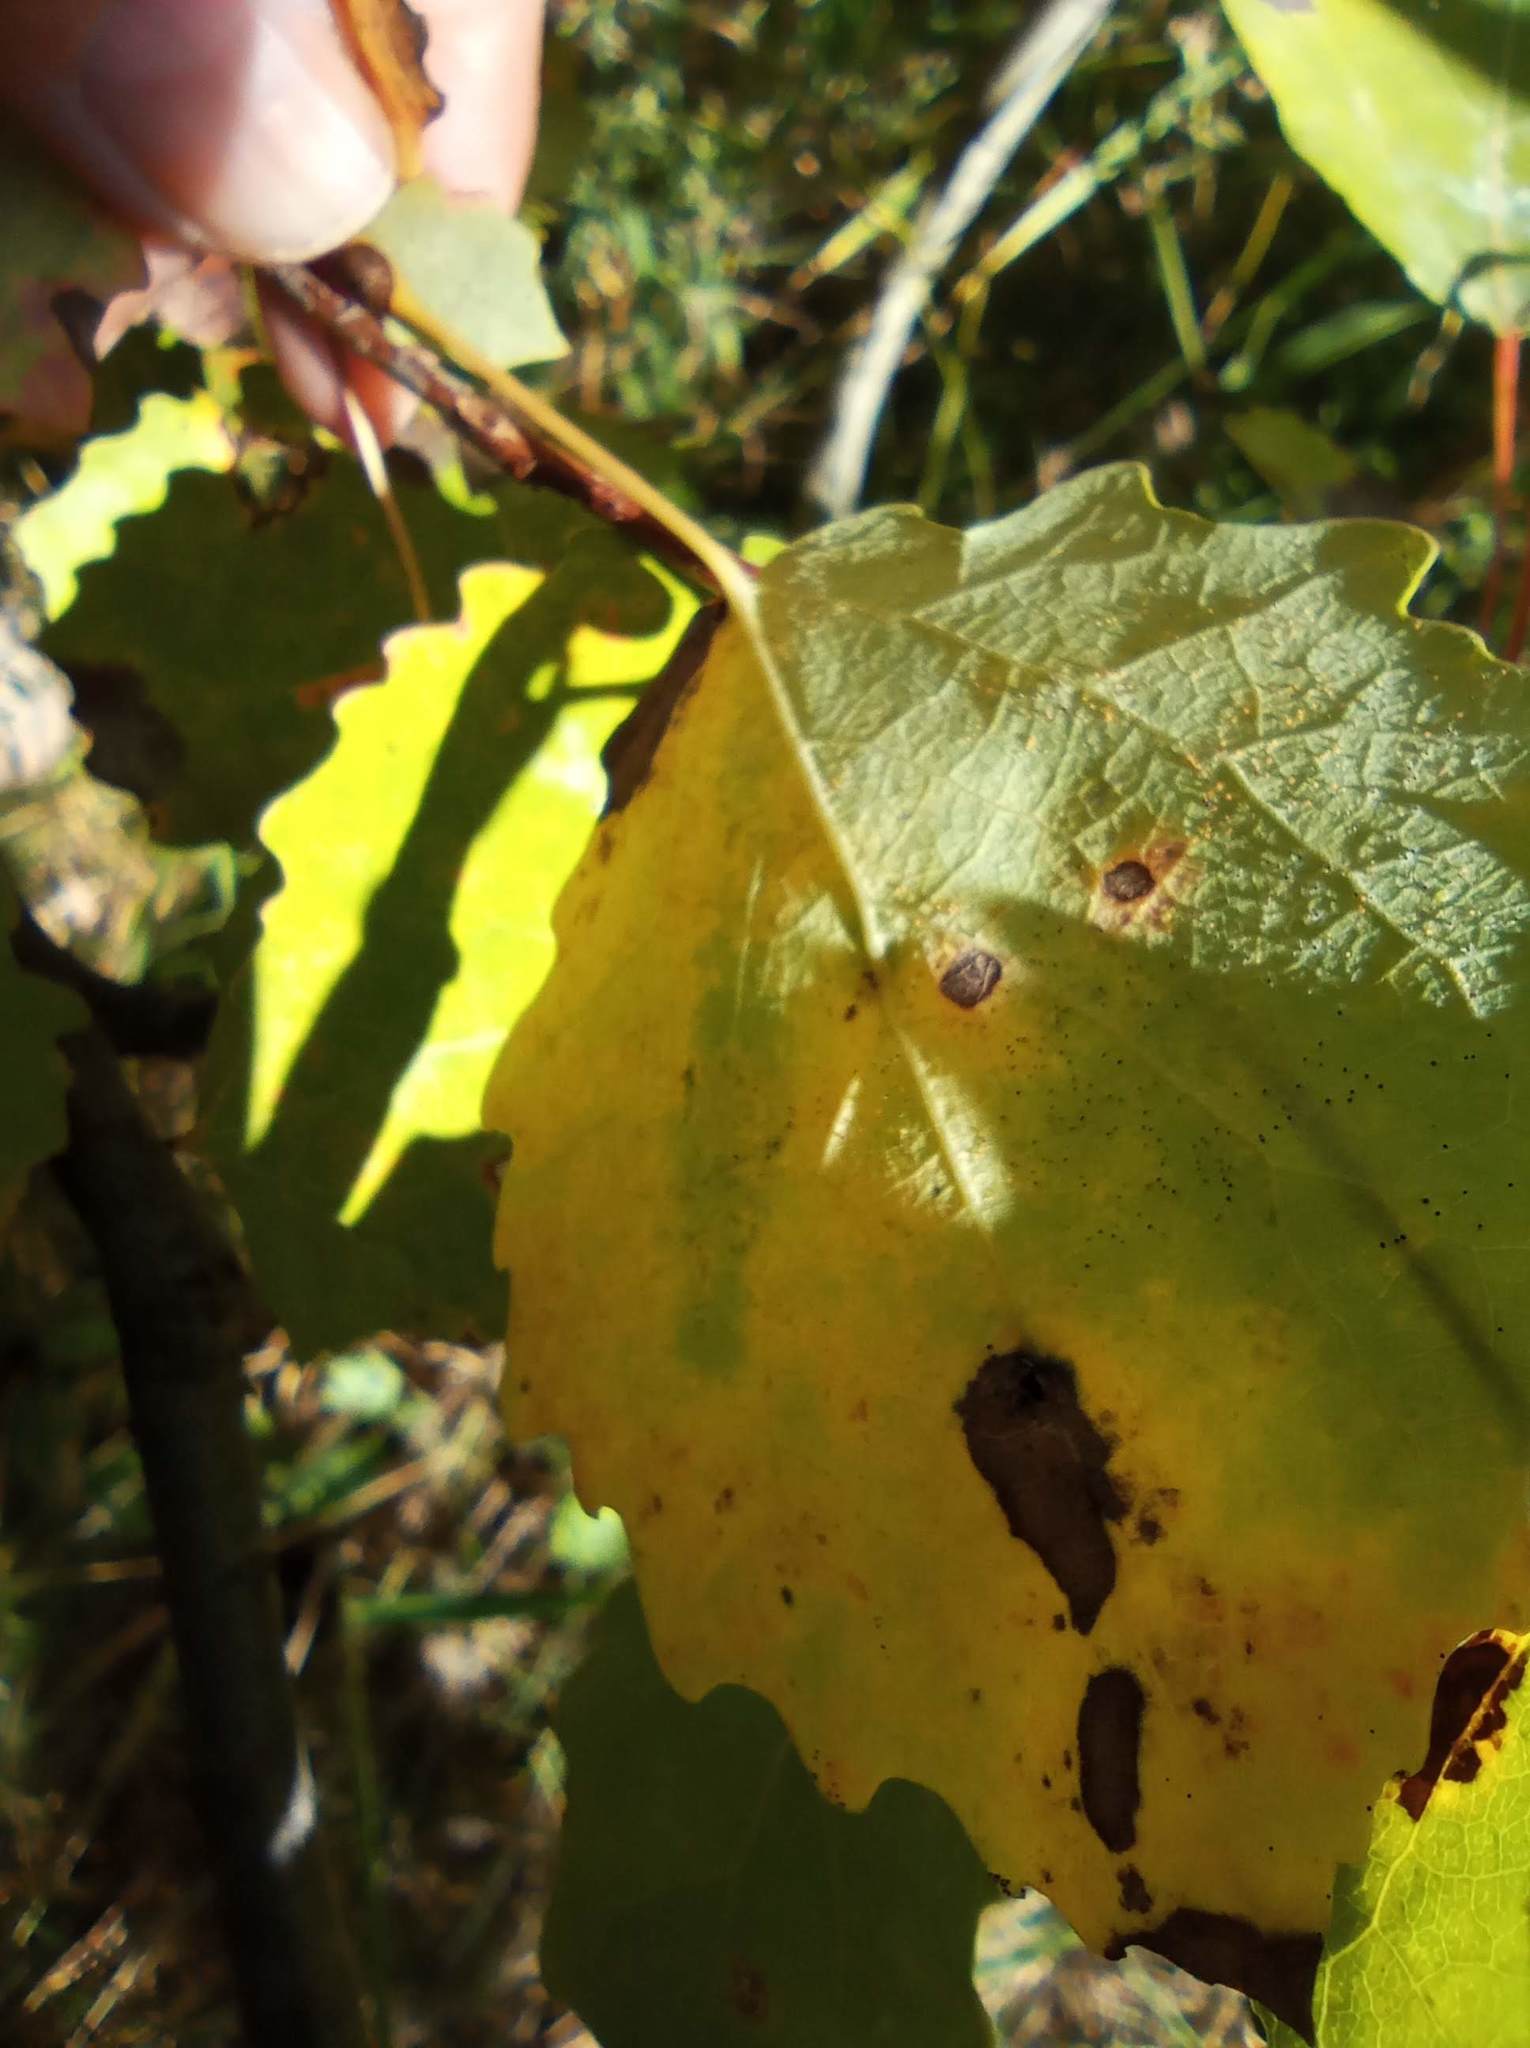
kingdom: Animalia
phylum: Arthropoda
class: Insecta
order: Diptera
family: Cecidomyiidae
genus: Harmandiola
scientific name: Harmandiola tremulae
